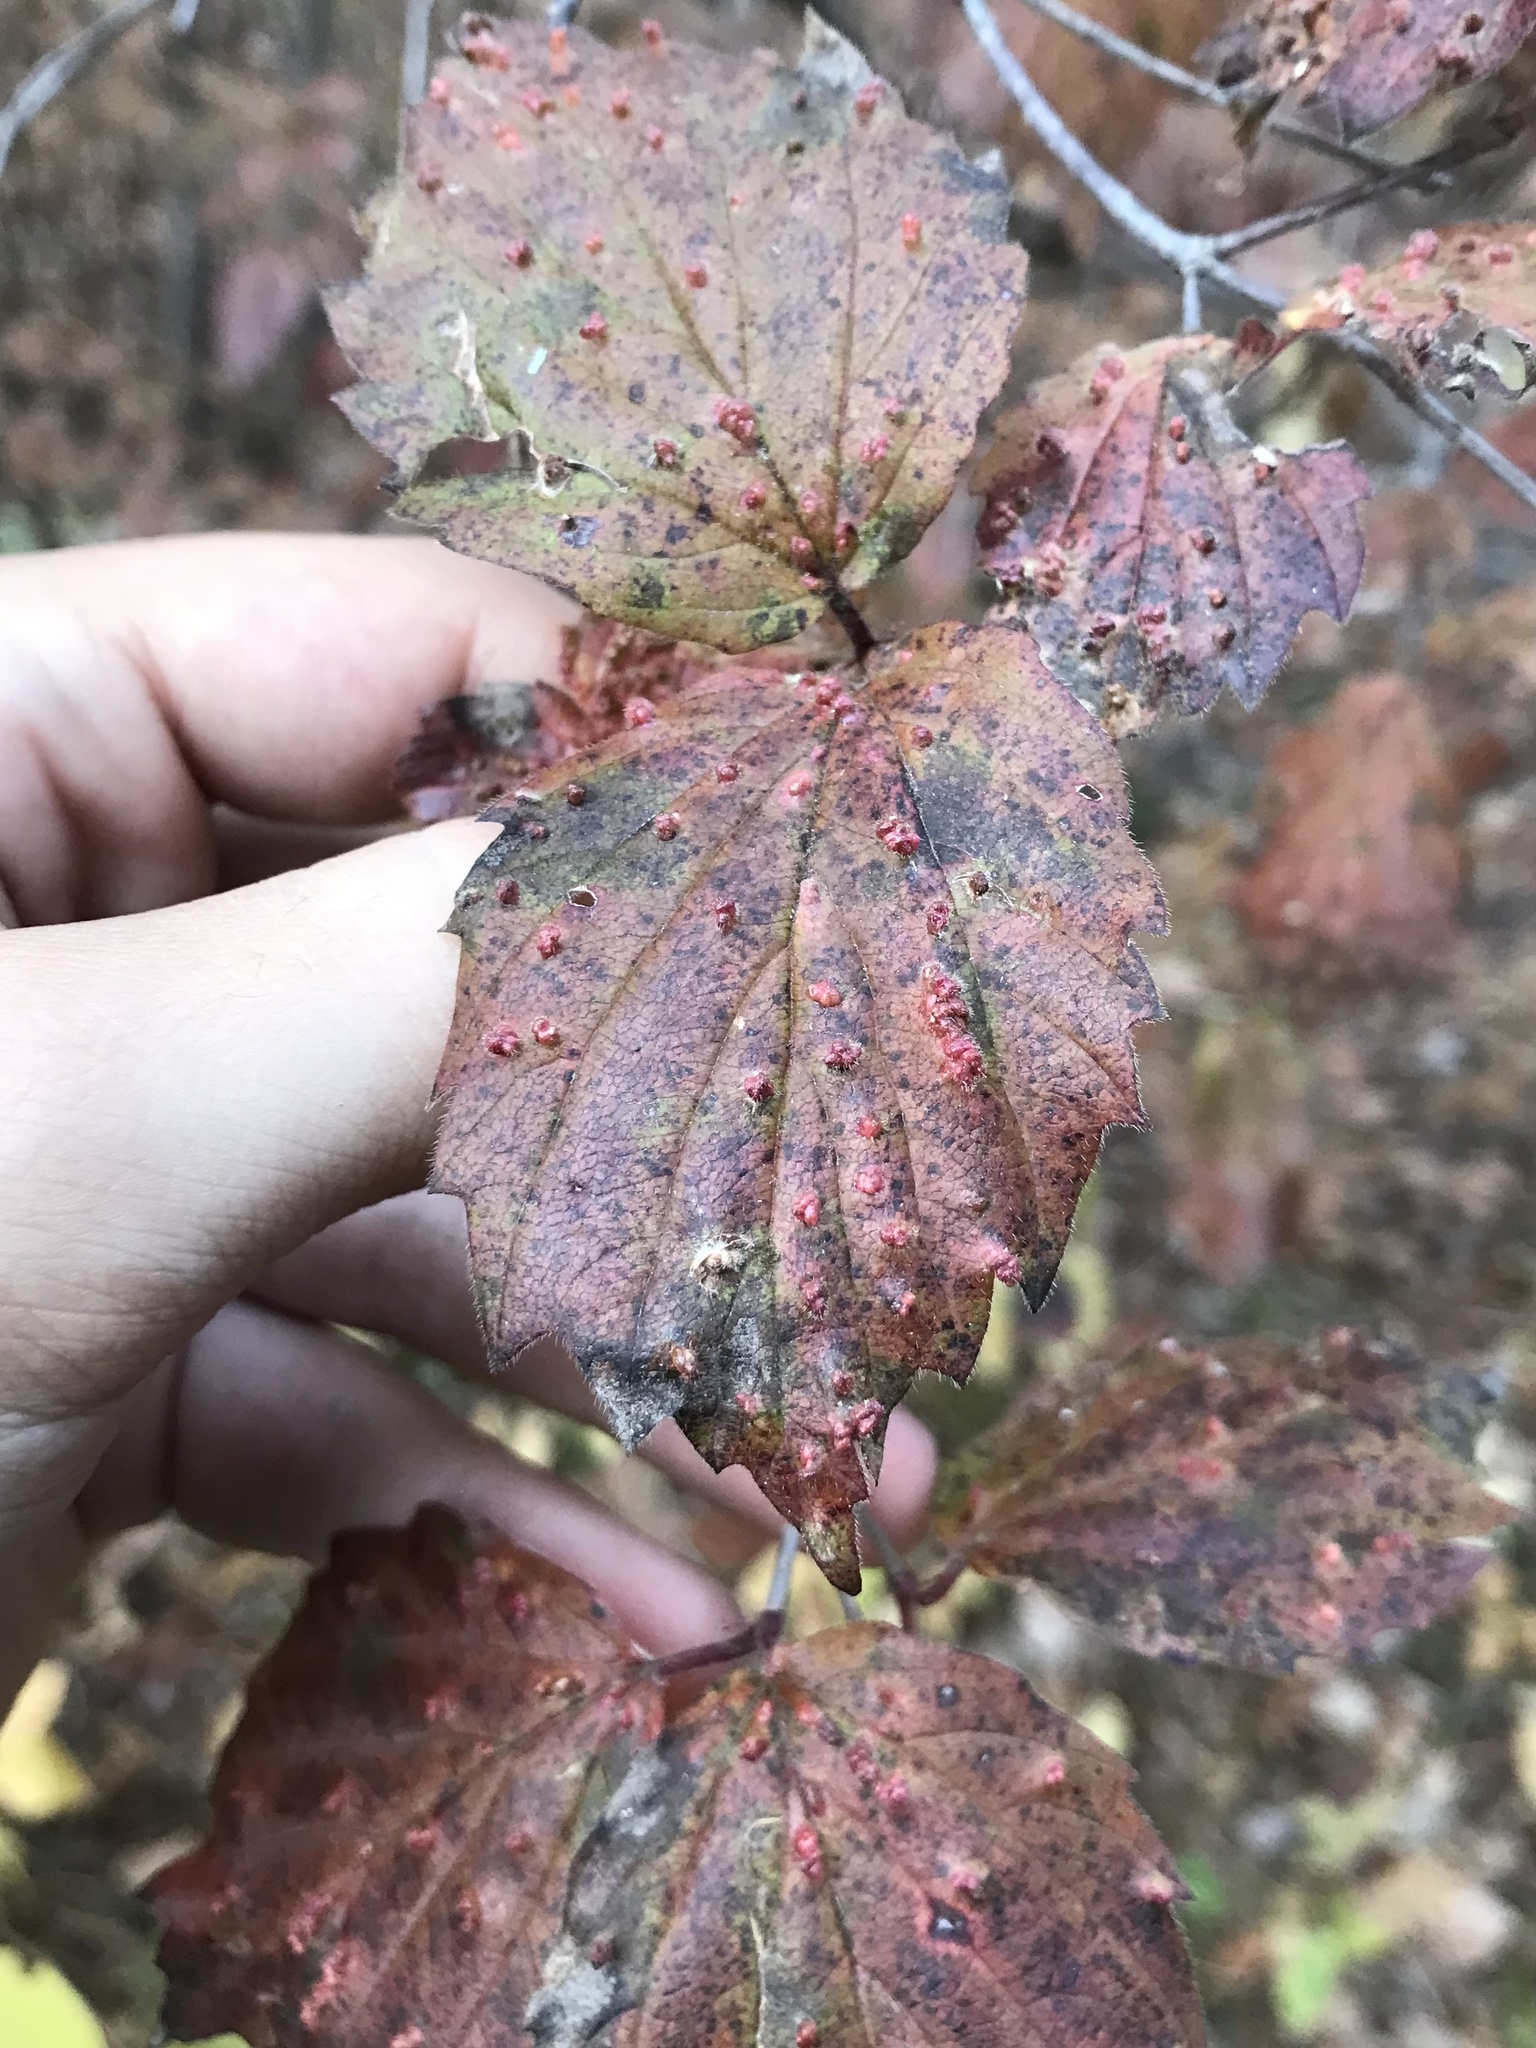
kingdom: Animalia
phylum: Arthropoda
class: Arachnida
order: Trombidiformes
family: Eriophyidae
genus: Eriophyes
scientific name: Eriophyes
